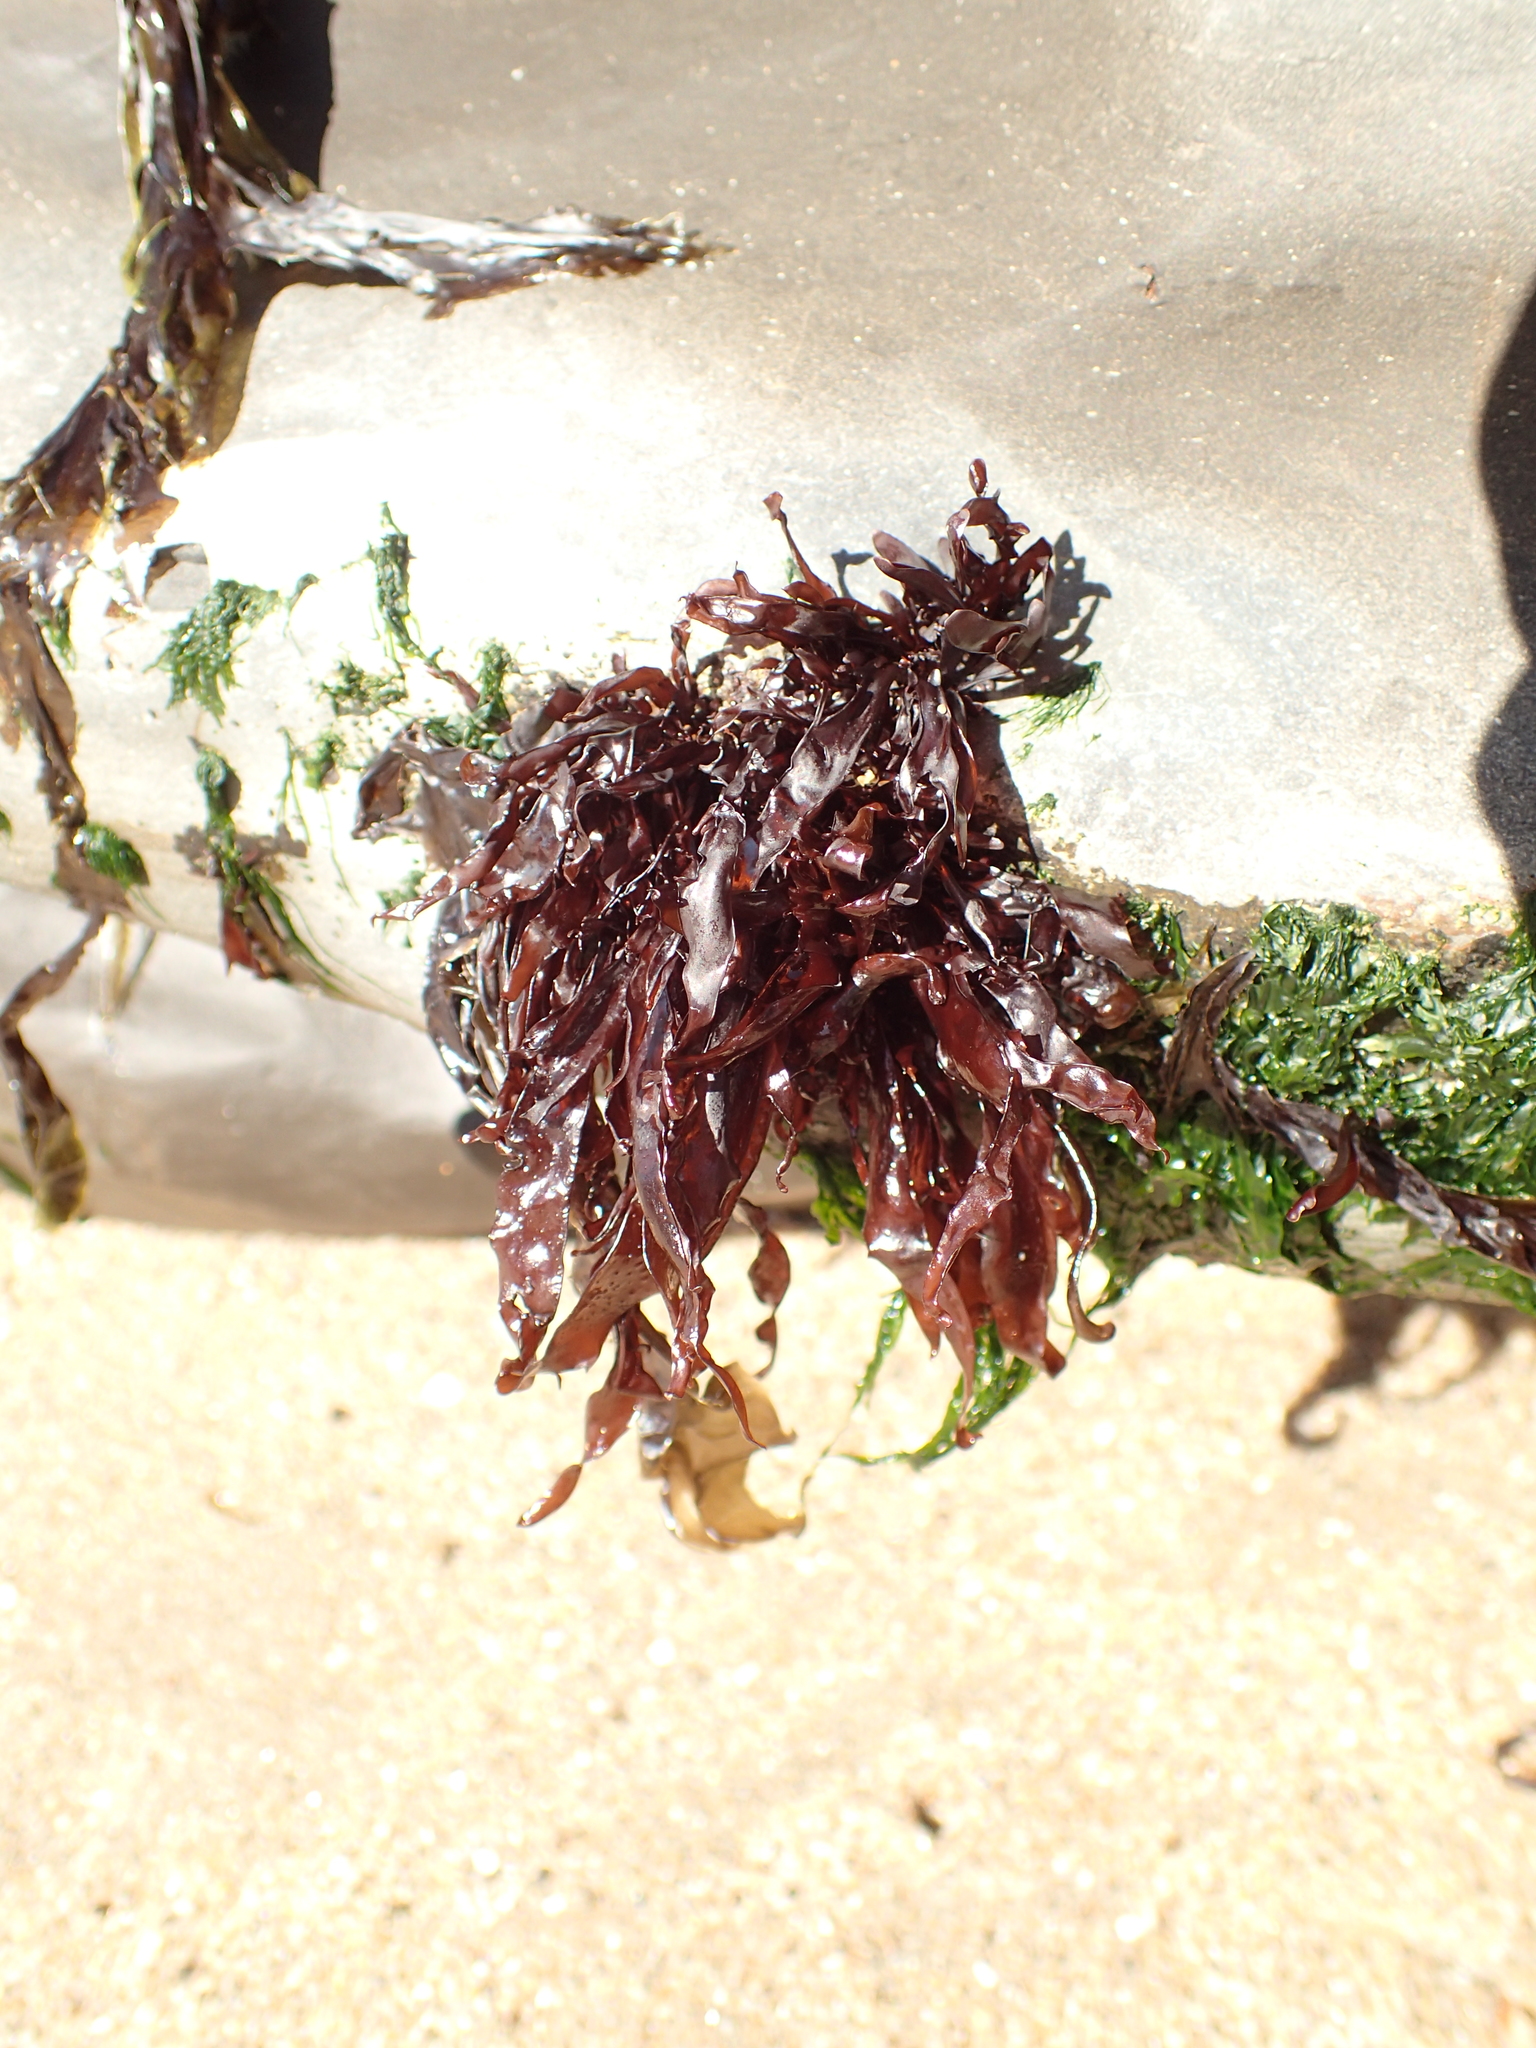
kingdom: Plantae
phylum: Rhodophyta
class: Florideophyceae
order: Gigartinales
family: Phyllophoraceae
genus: Mastocarpus
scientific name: Mastocarpus jardinii
